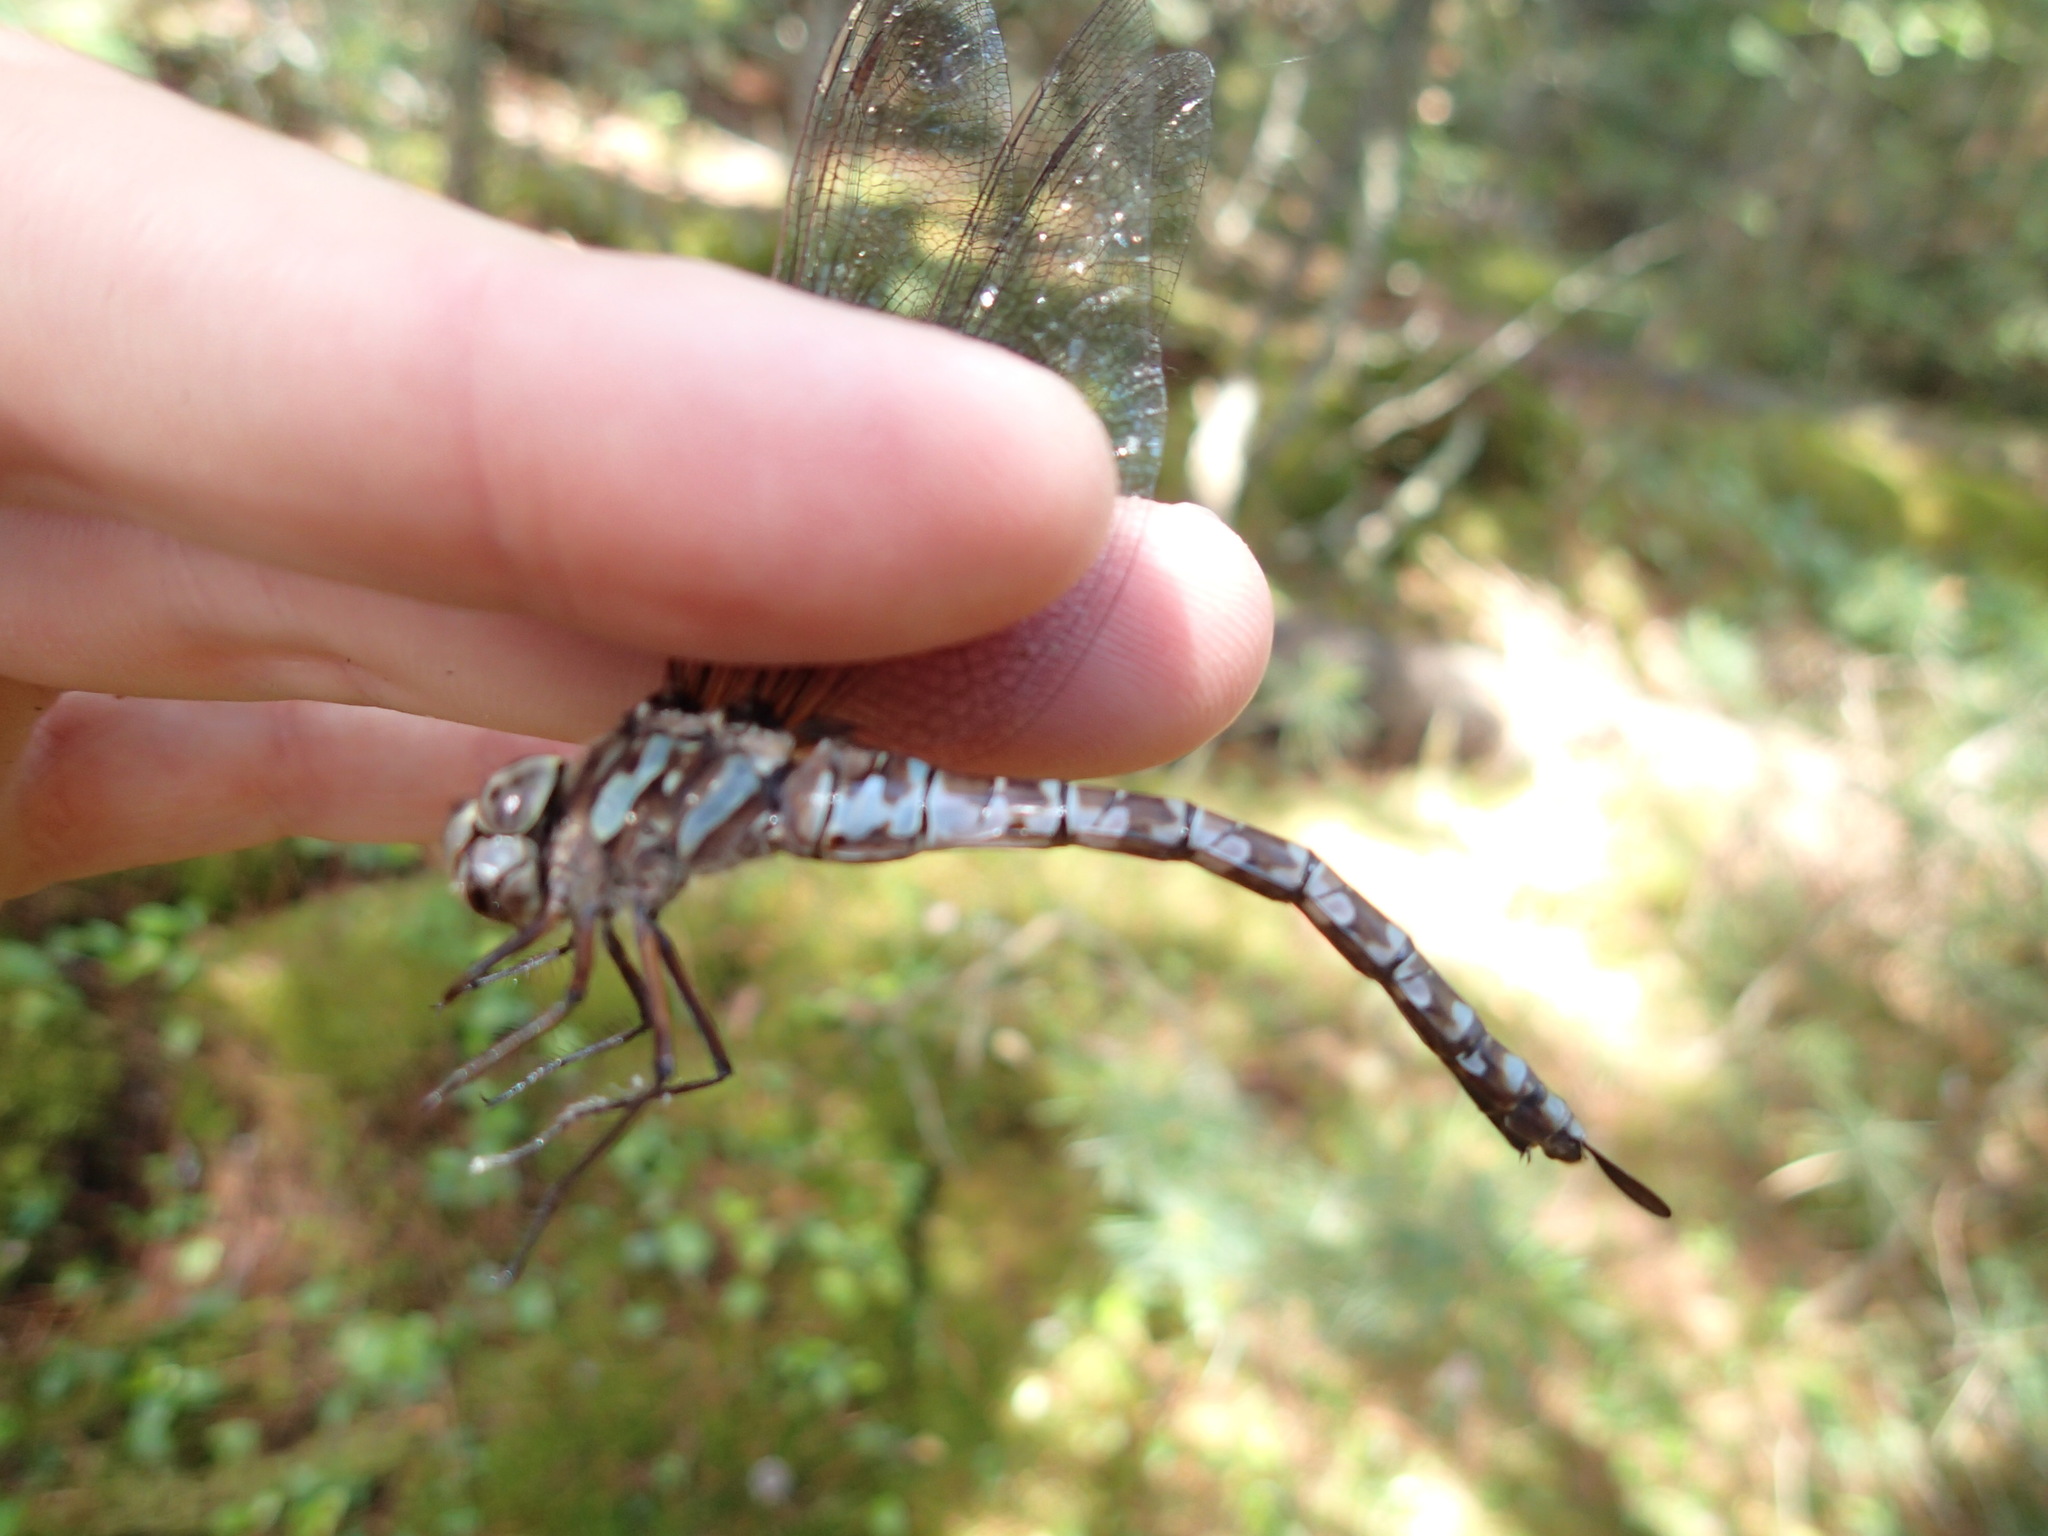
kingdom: Animalia
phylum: Arthropoda
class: Insecta
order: Odonata
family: Aeshnidae
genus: Aeshna
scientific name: Aeshna canadensis
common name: Canada darner
